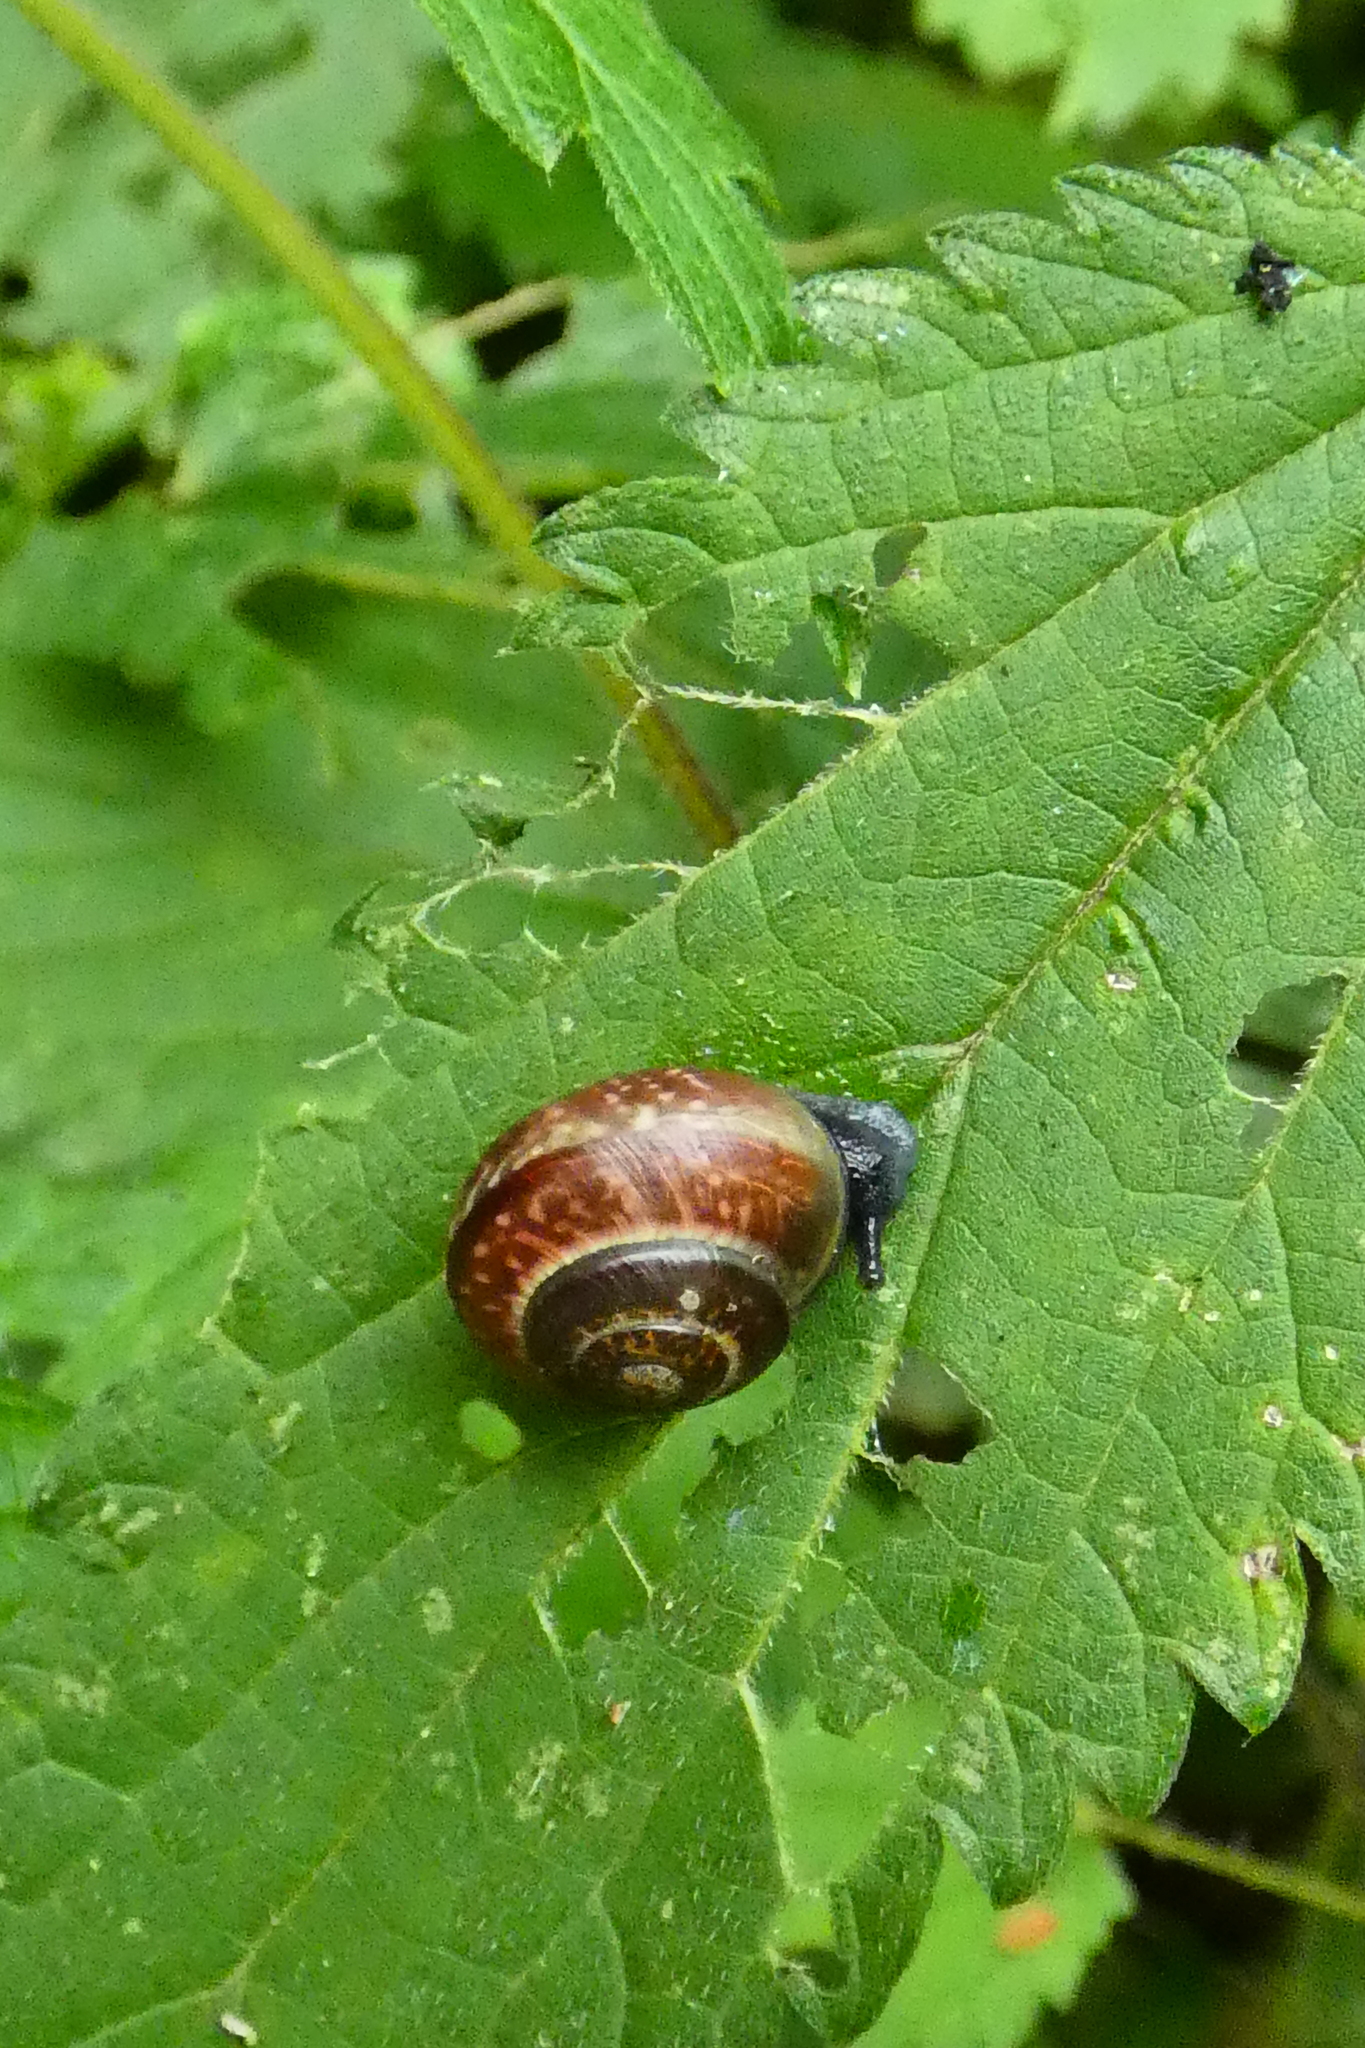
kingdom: Animalia
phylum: Mollusca
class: Gastropoda
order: Stylommatophora
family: Helicidae
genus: Arianta
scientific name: Arianta arbustorum
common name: Copse snail
